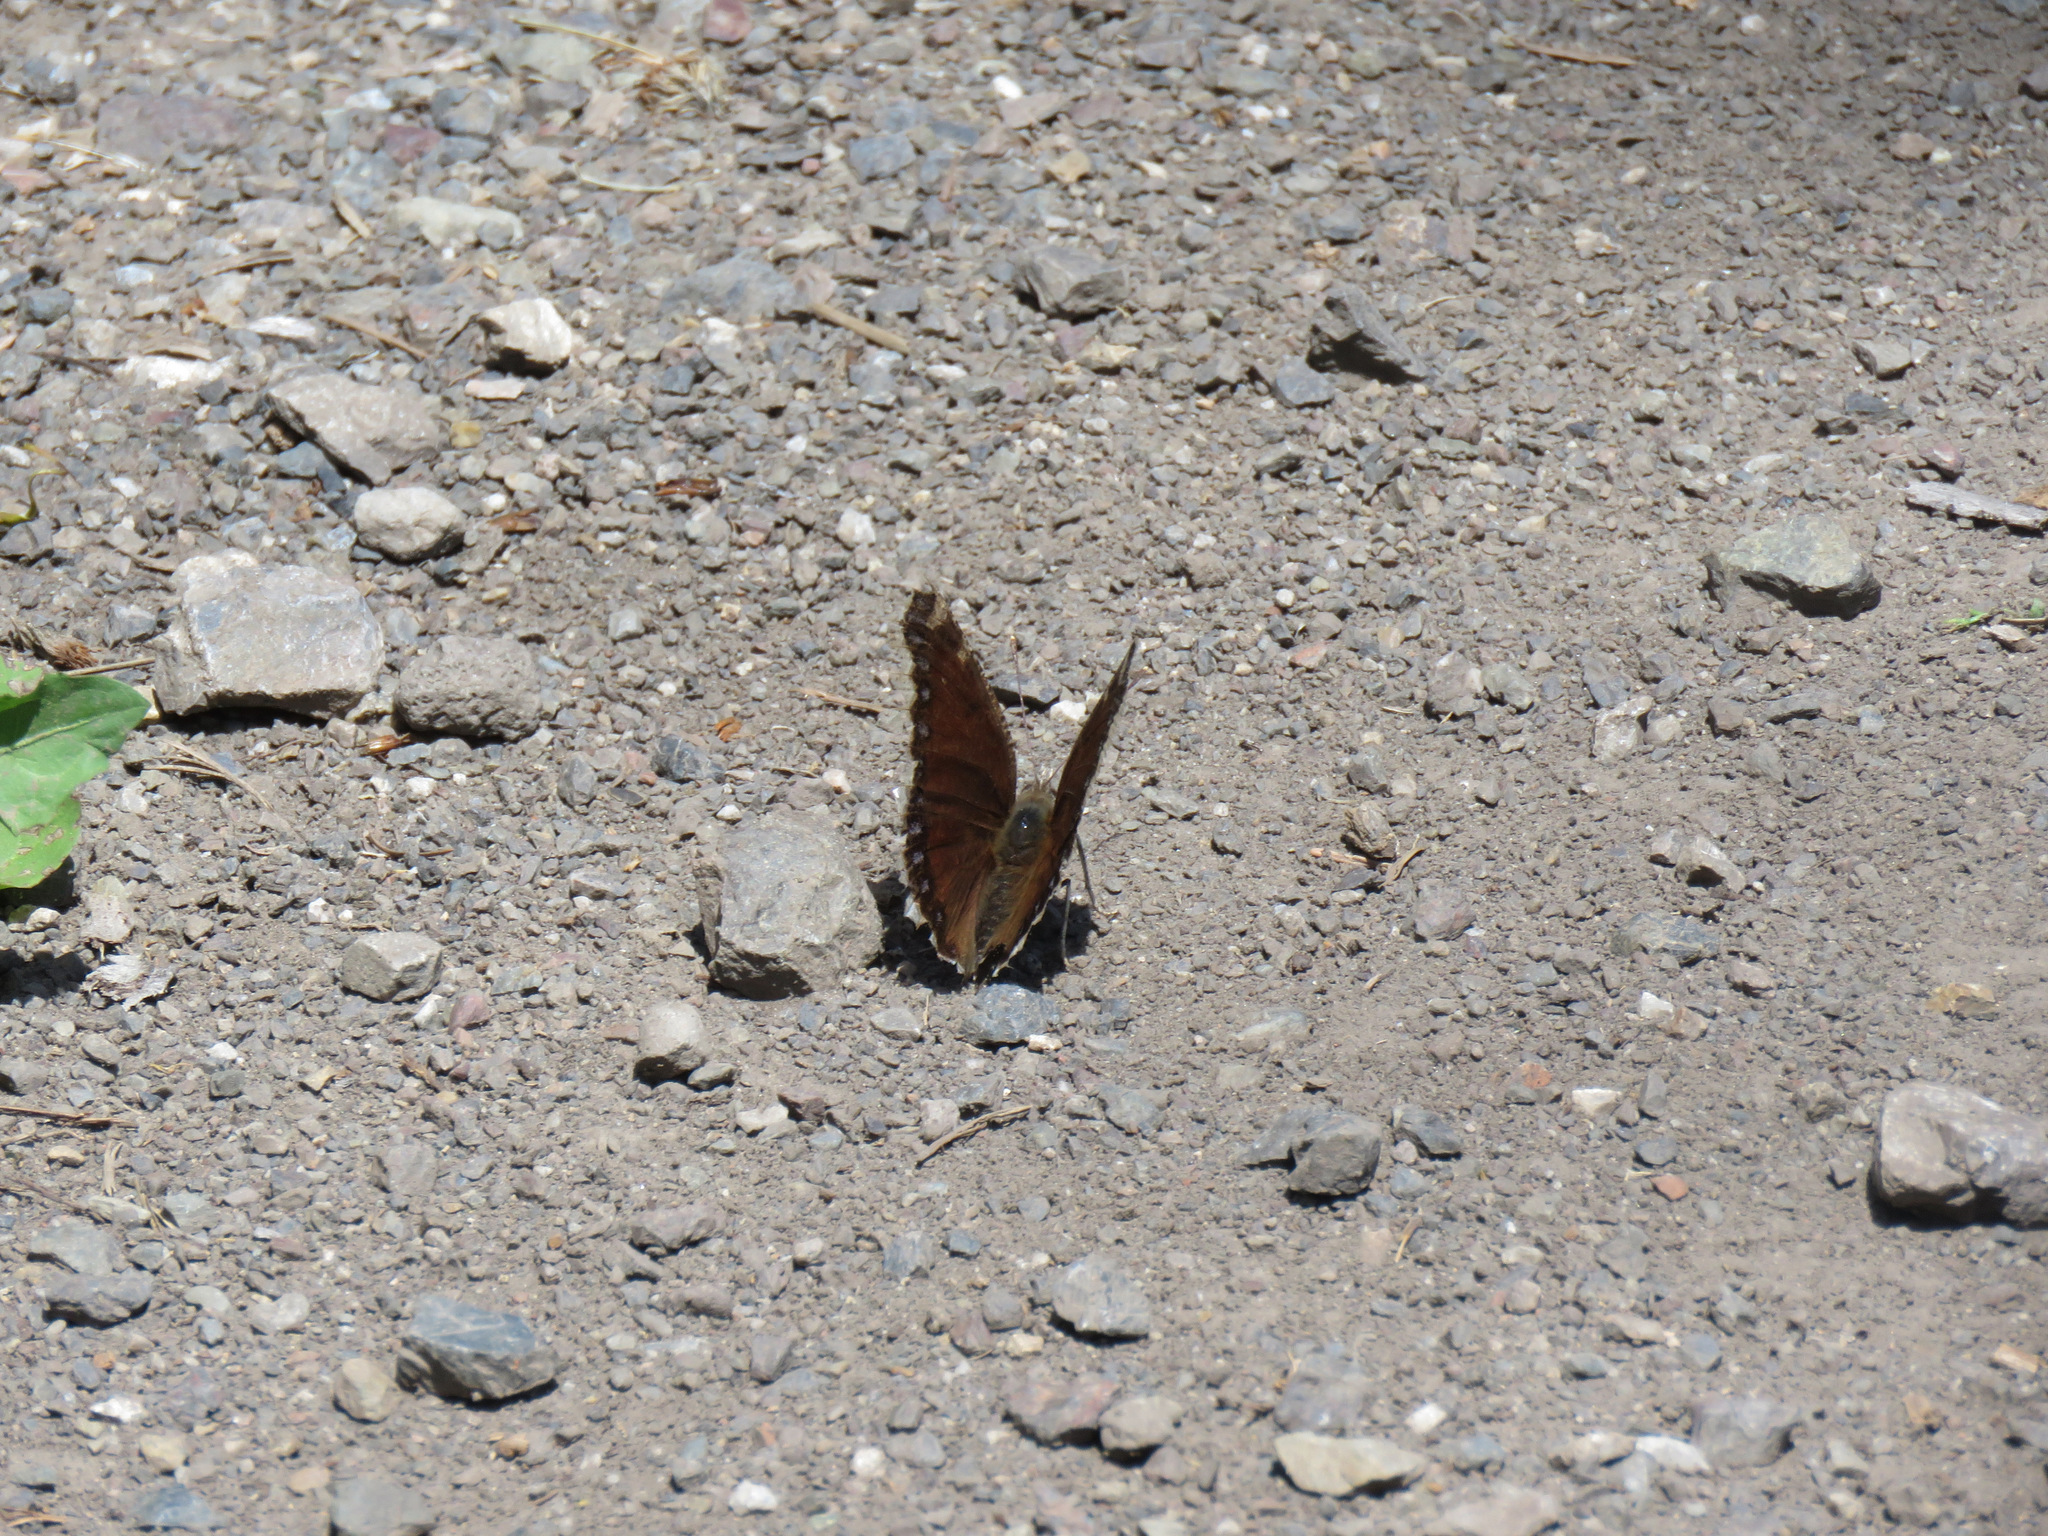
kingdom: Animalia
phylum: Arthropoda
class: Insecta
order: Lepidoptera
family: Nymphalidae
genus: Nymphalis
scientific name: Nymphalis antiopa
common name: Camberwell beauty
